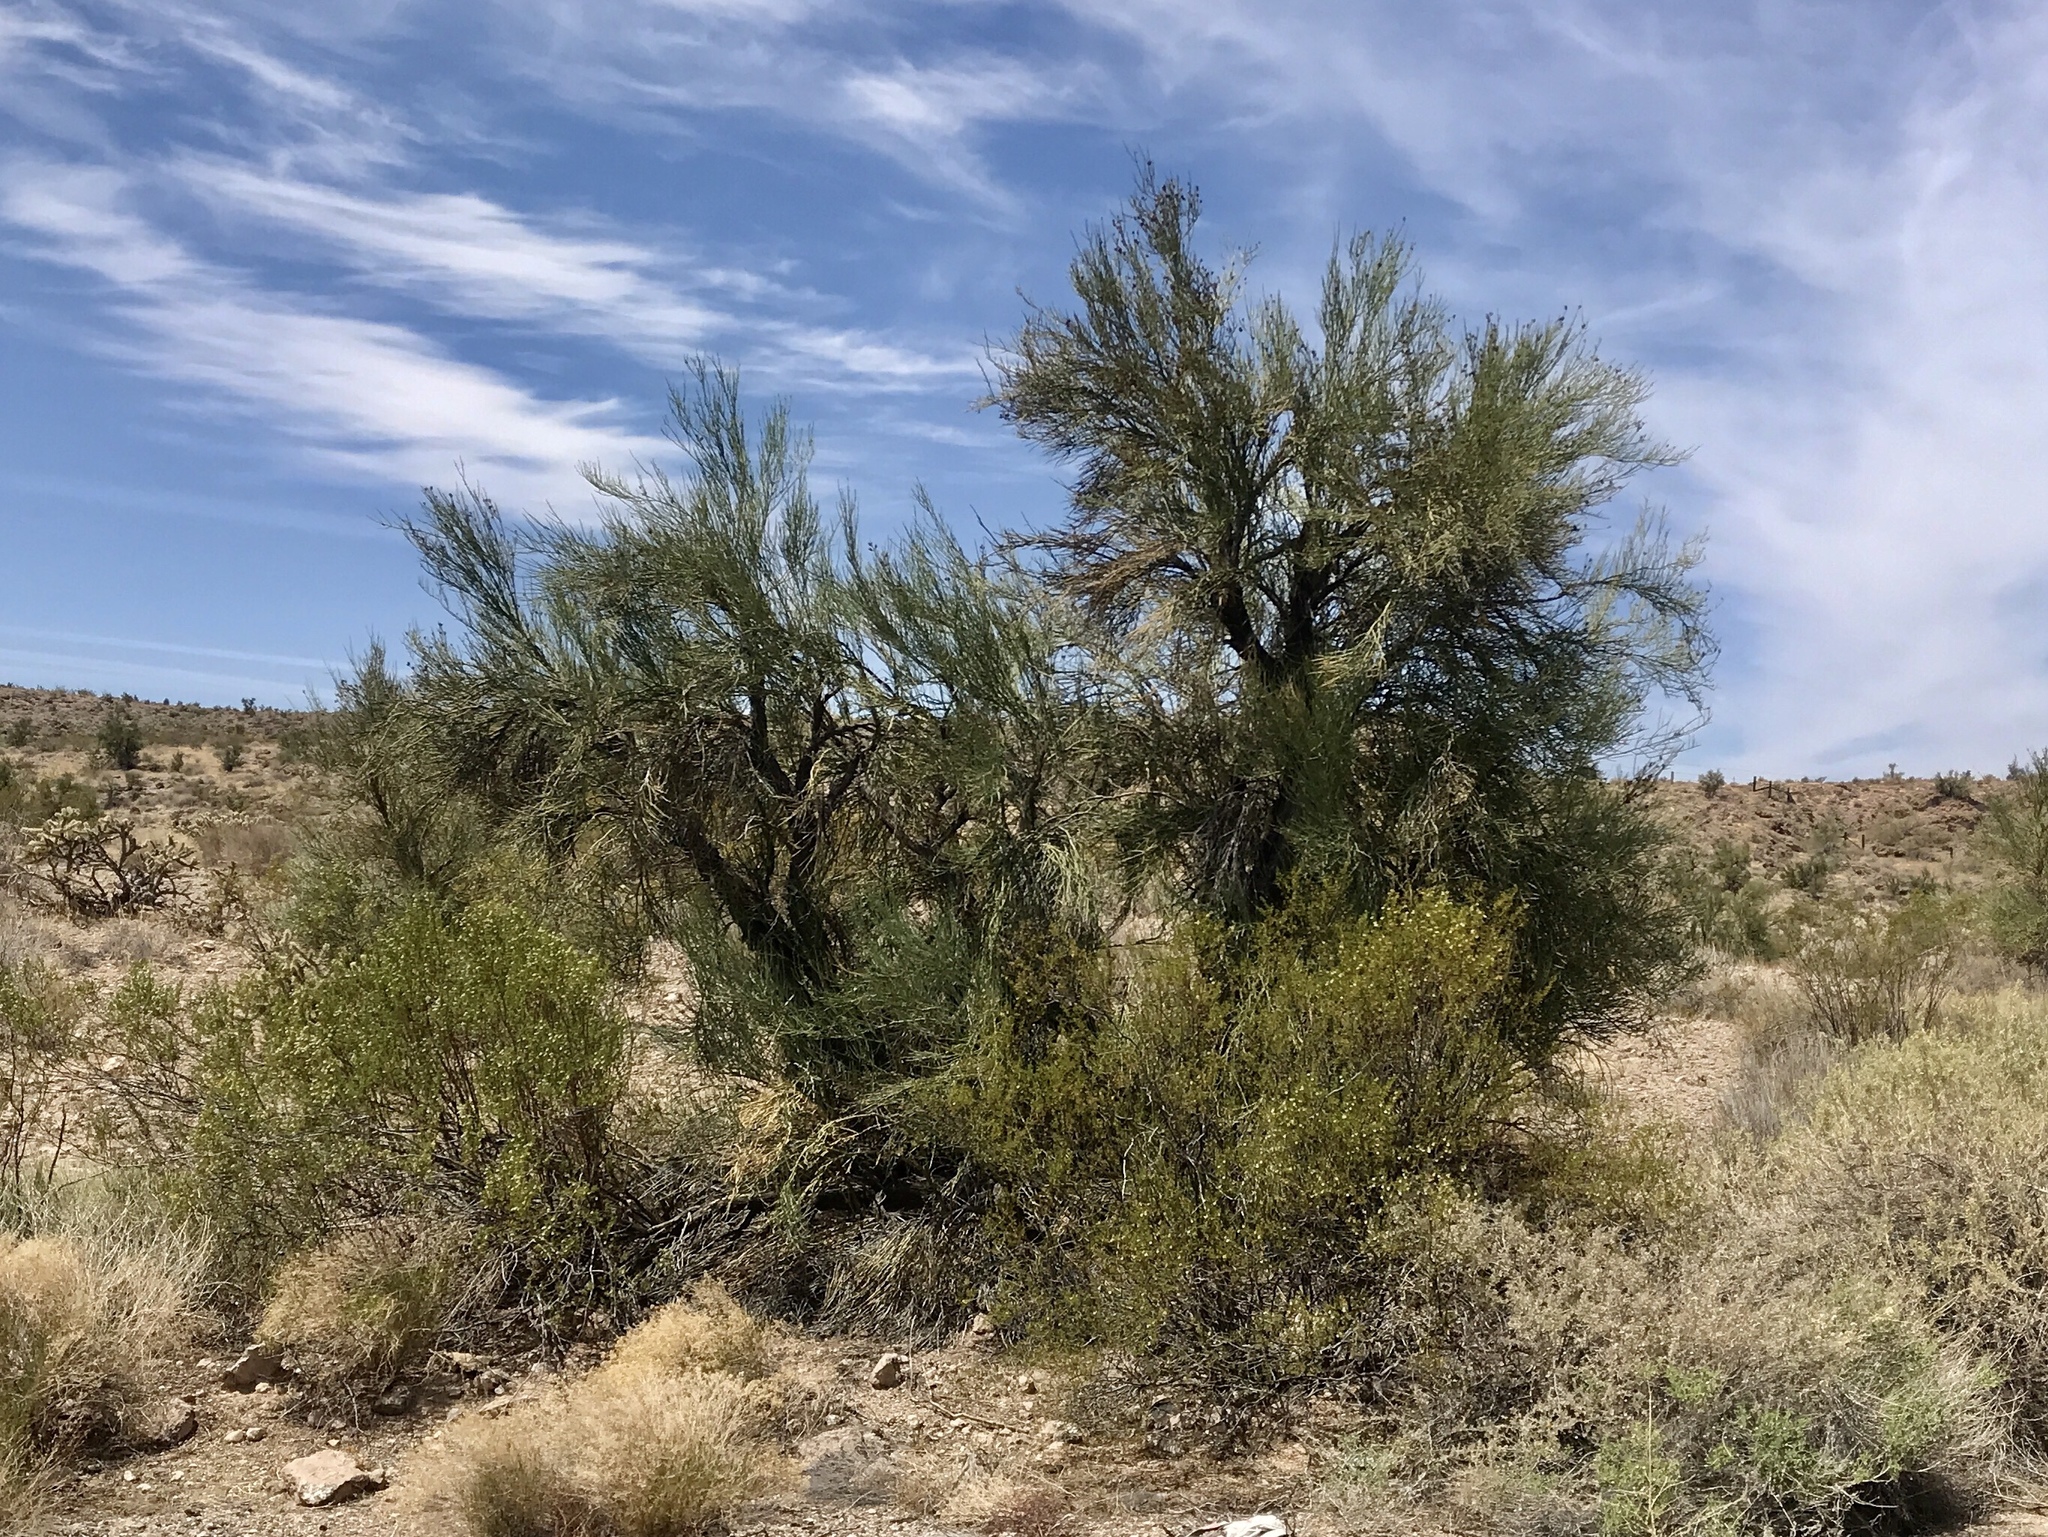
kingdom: Plantae
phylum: Tracheophyta
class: Magnoliopsida
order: Celastrales
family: Celastraceae
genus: Canotia
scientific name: Canotia holacantha
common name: Crucifixion thorns
